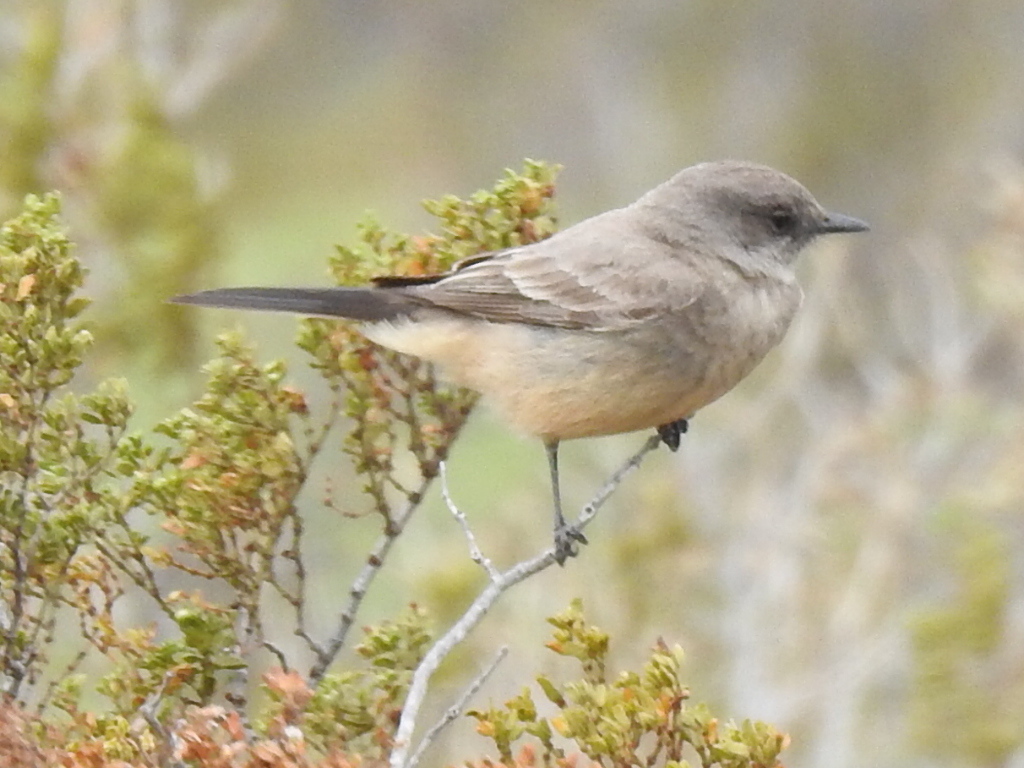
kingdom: Animalia
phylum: Chordata
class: Aves
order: Passeriformes
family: Tyrannidae
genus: Sayornis
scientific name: Sayornis saya
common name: Say's phoebe
